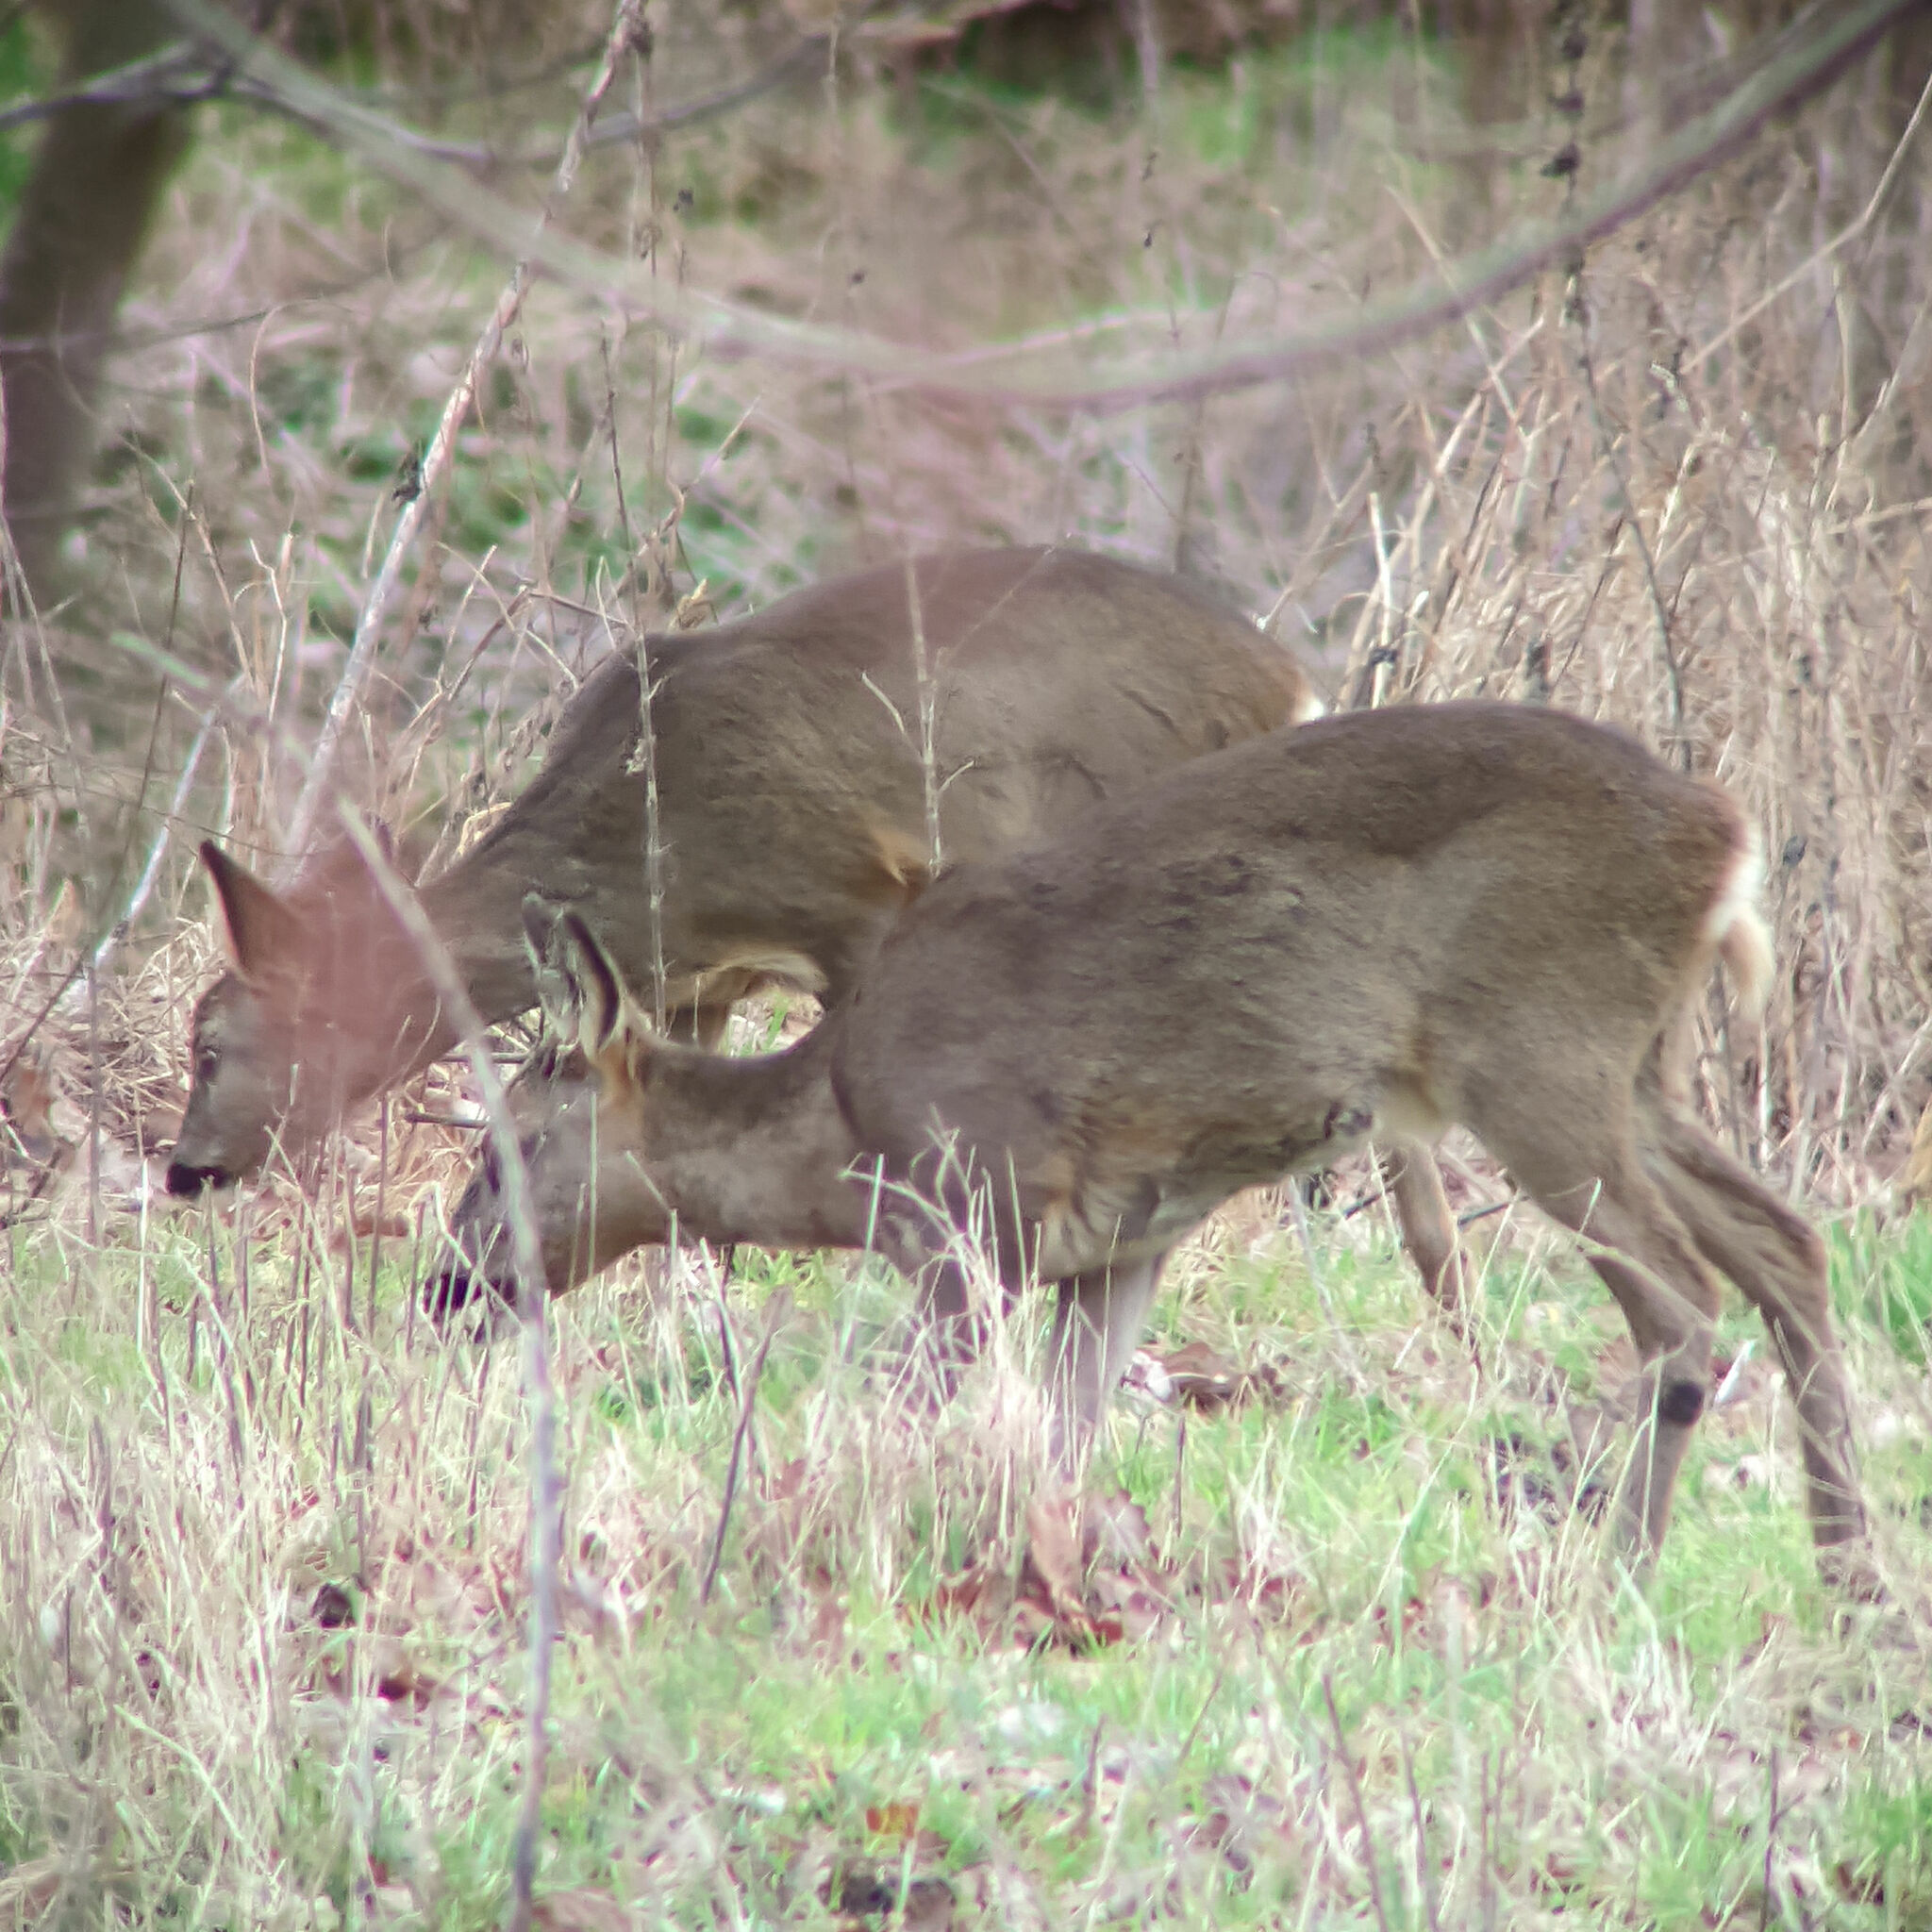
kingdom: Animalia
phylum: Chordata
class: Mammalia
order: Artiodactyla
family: Cervidae
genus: Capreolus
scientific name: Capreolus capreolus
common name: Western roe deer
